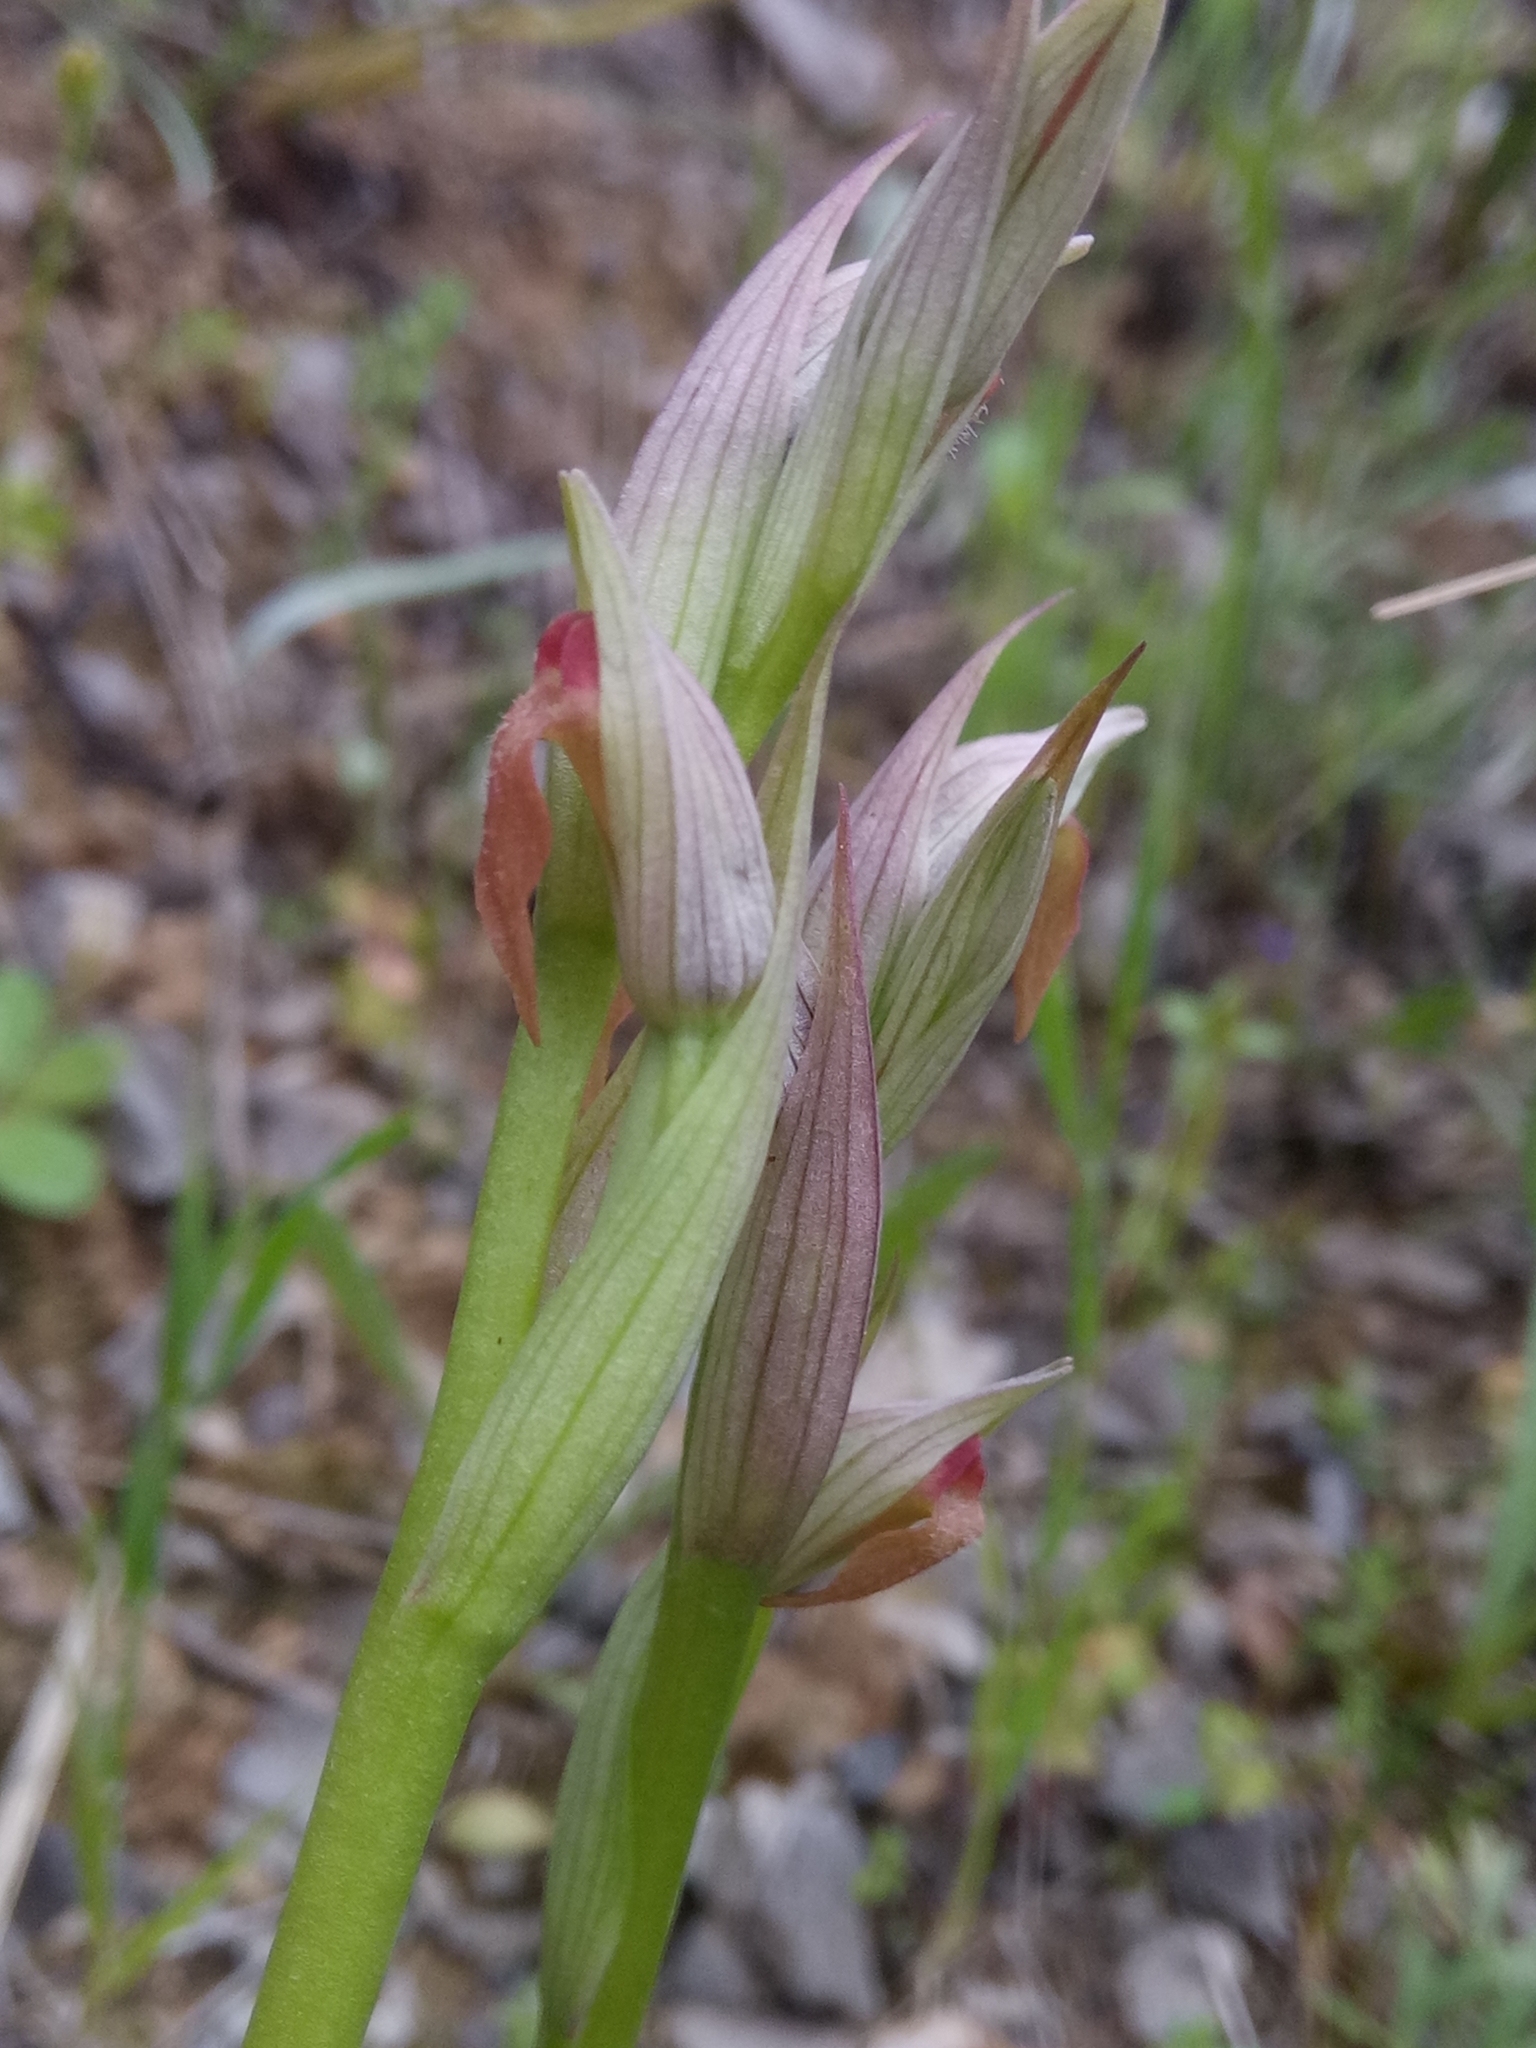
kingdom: Plantae
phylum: Tracheophyta
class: Liliopsida
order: Asparagales
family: Orchidaceae
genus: Serapias
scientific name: Serapias parviflora
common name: Small-flowered tongue-orchid
